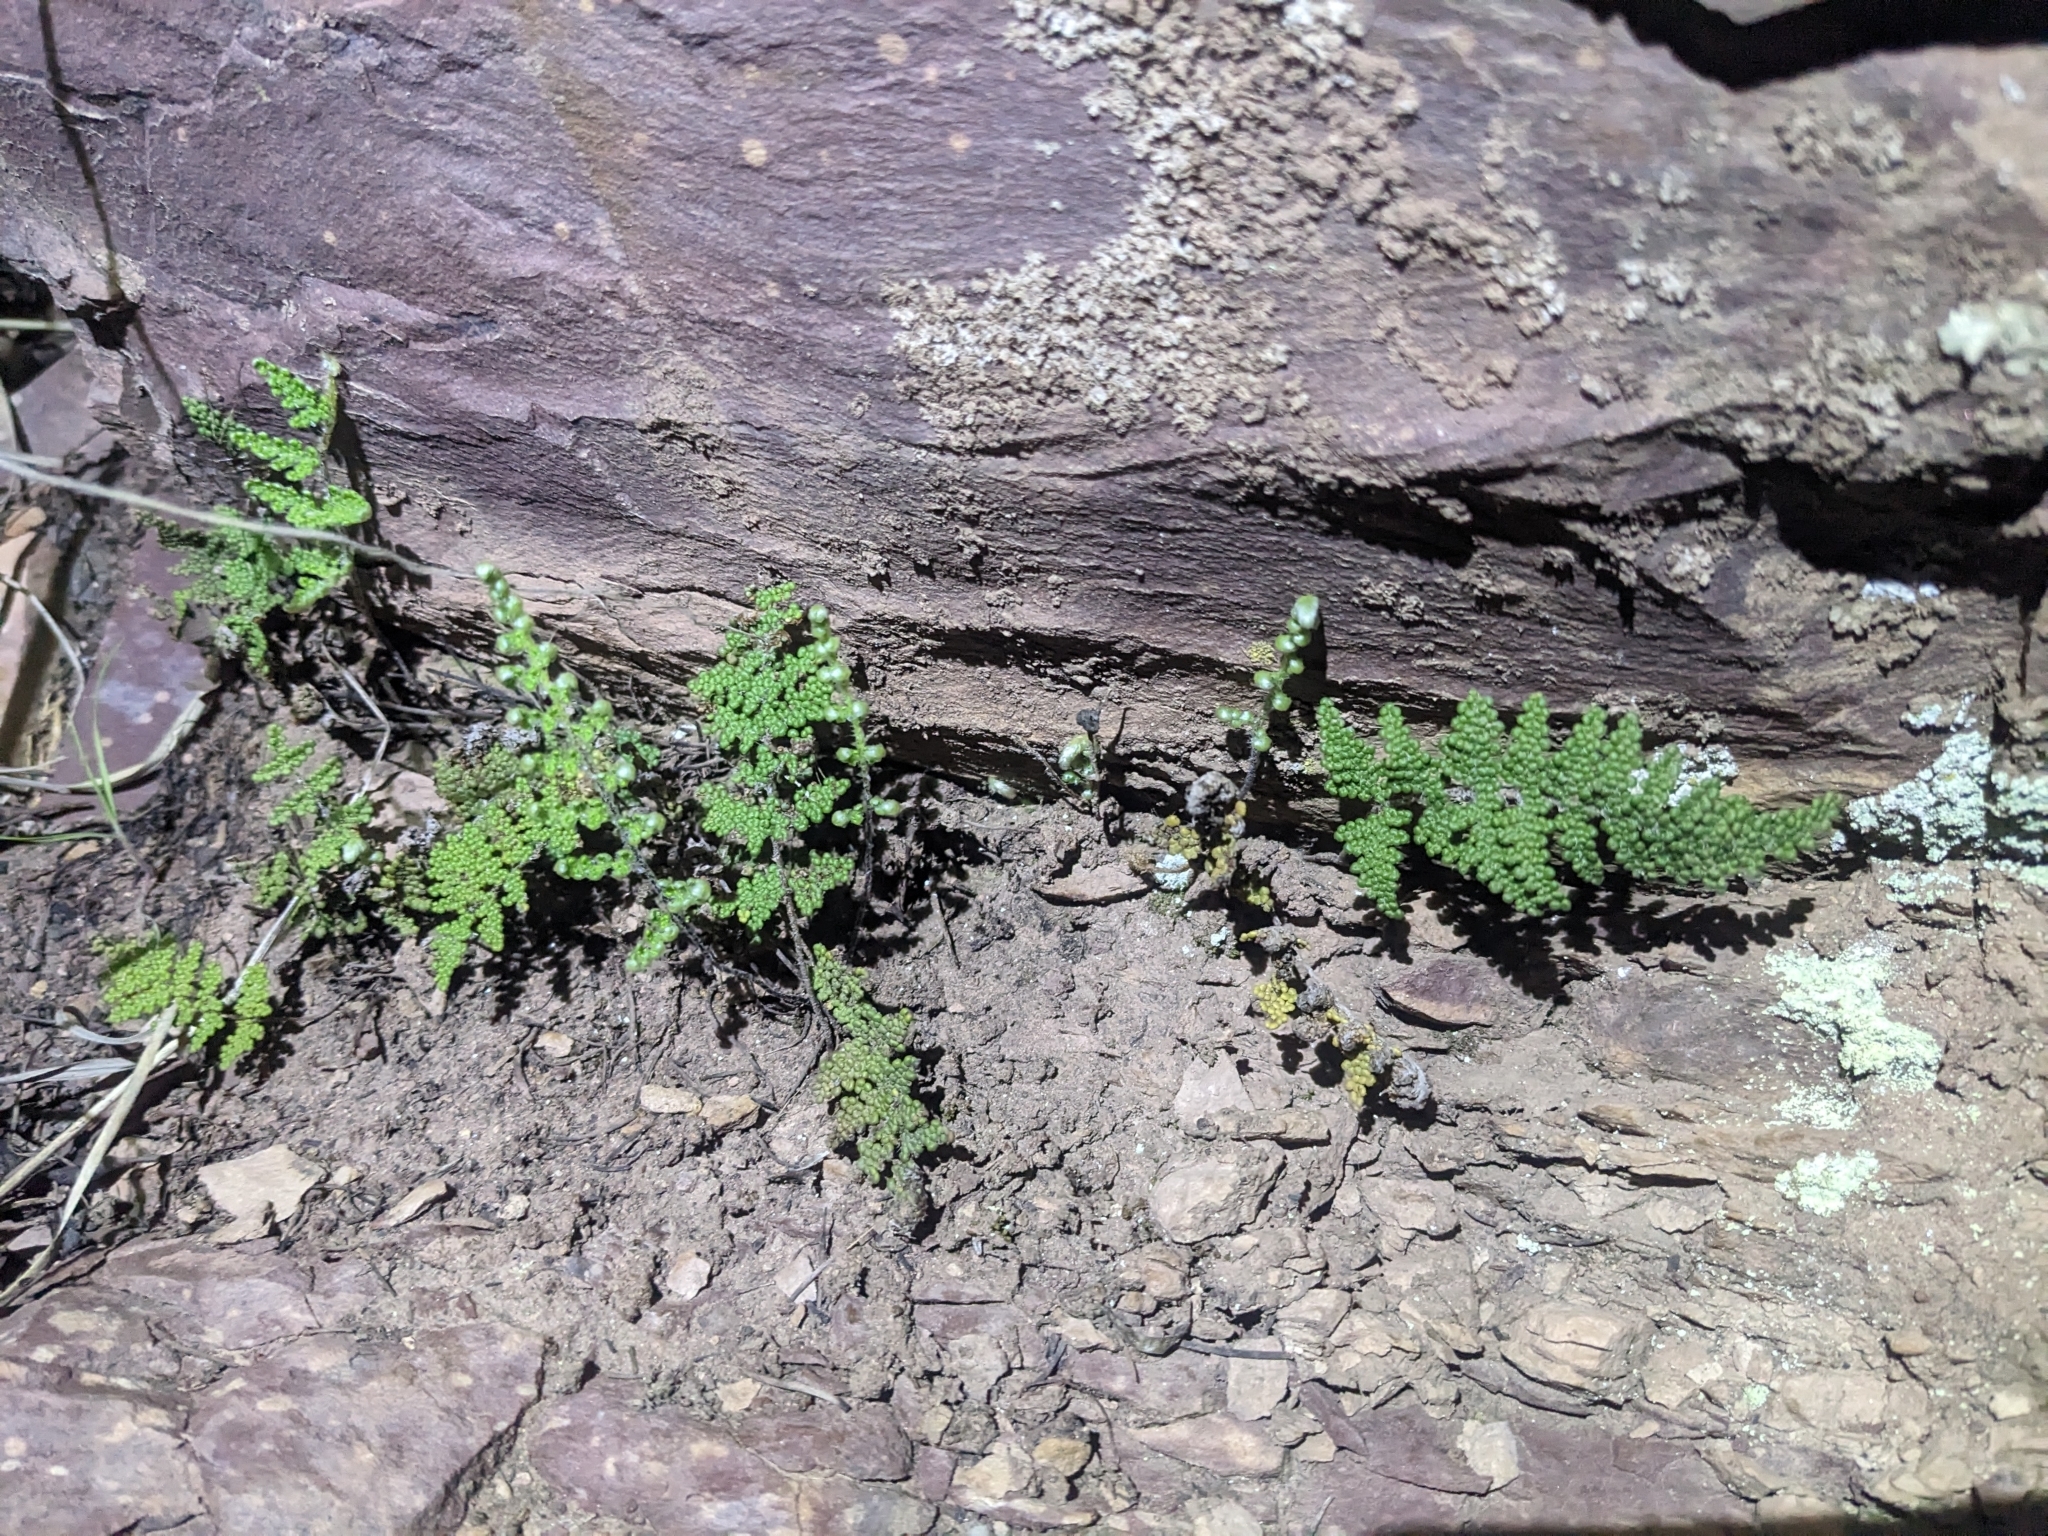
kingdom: Plantae
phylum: Tracheophyta
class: Polypodiopsida
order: Polypodiales
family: Pteridaceae
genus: Myriopteris
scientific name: Myriopteris covillei
